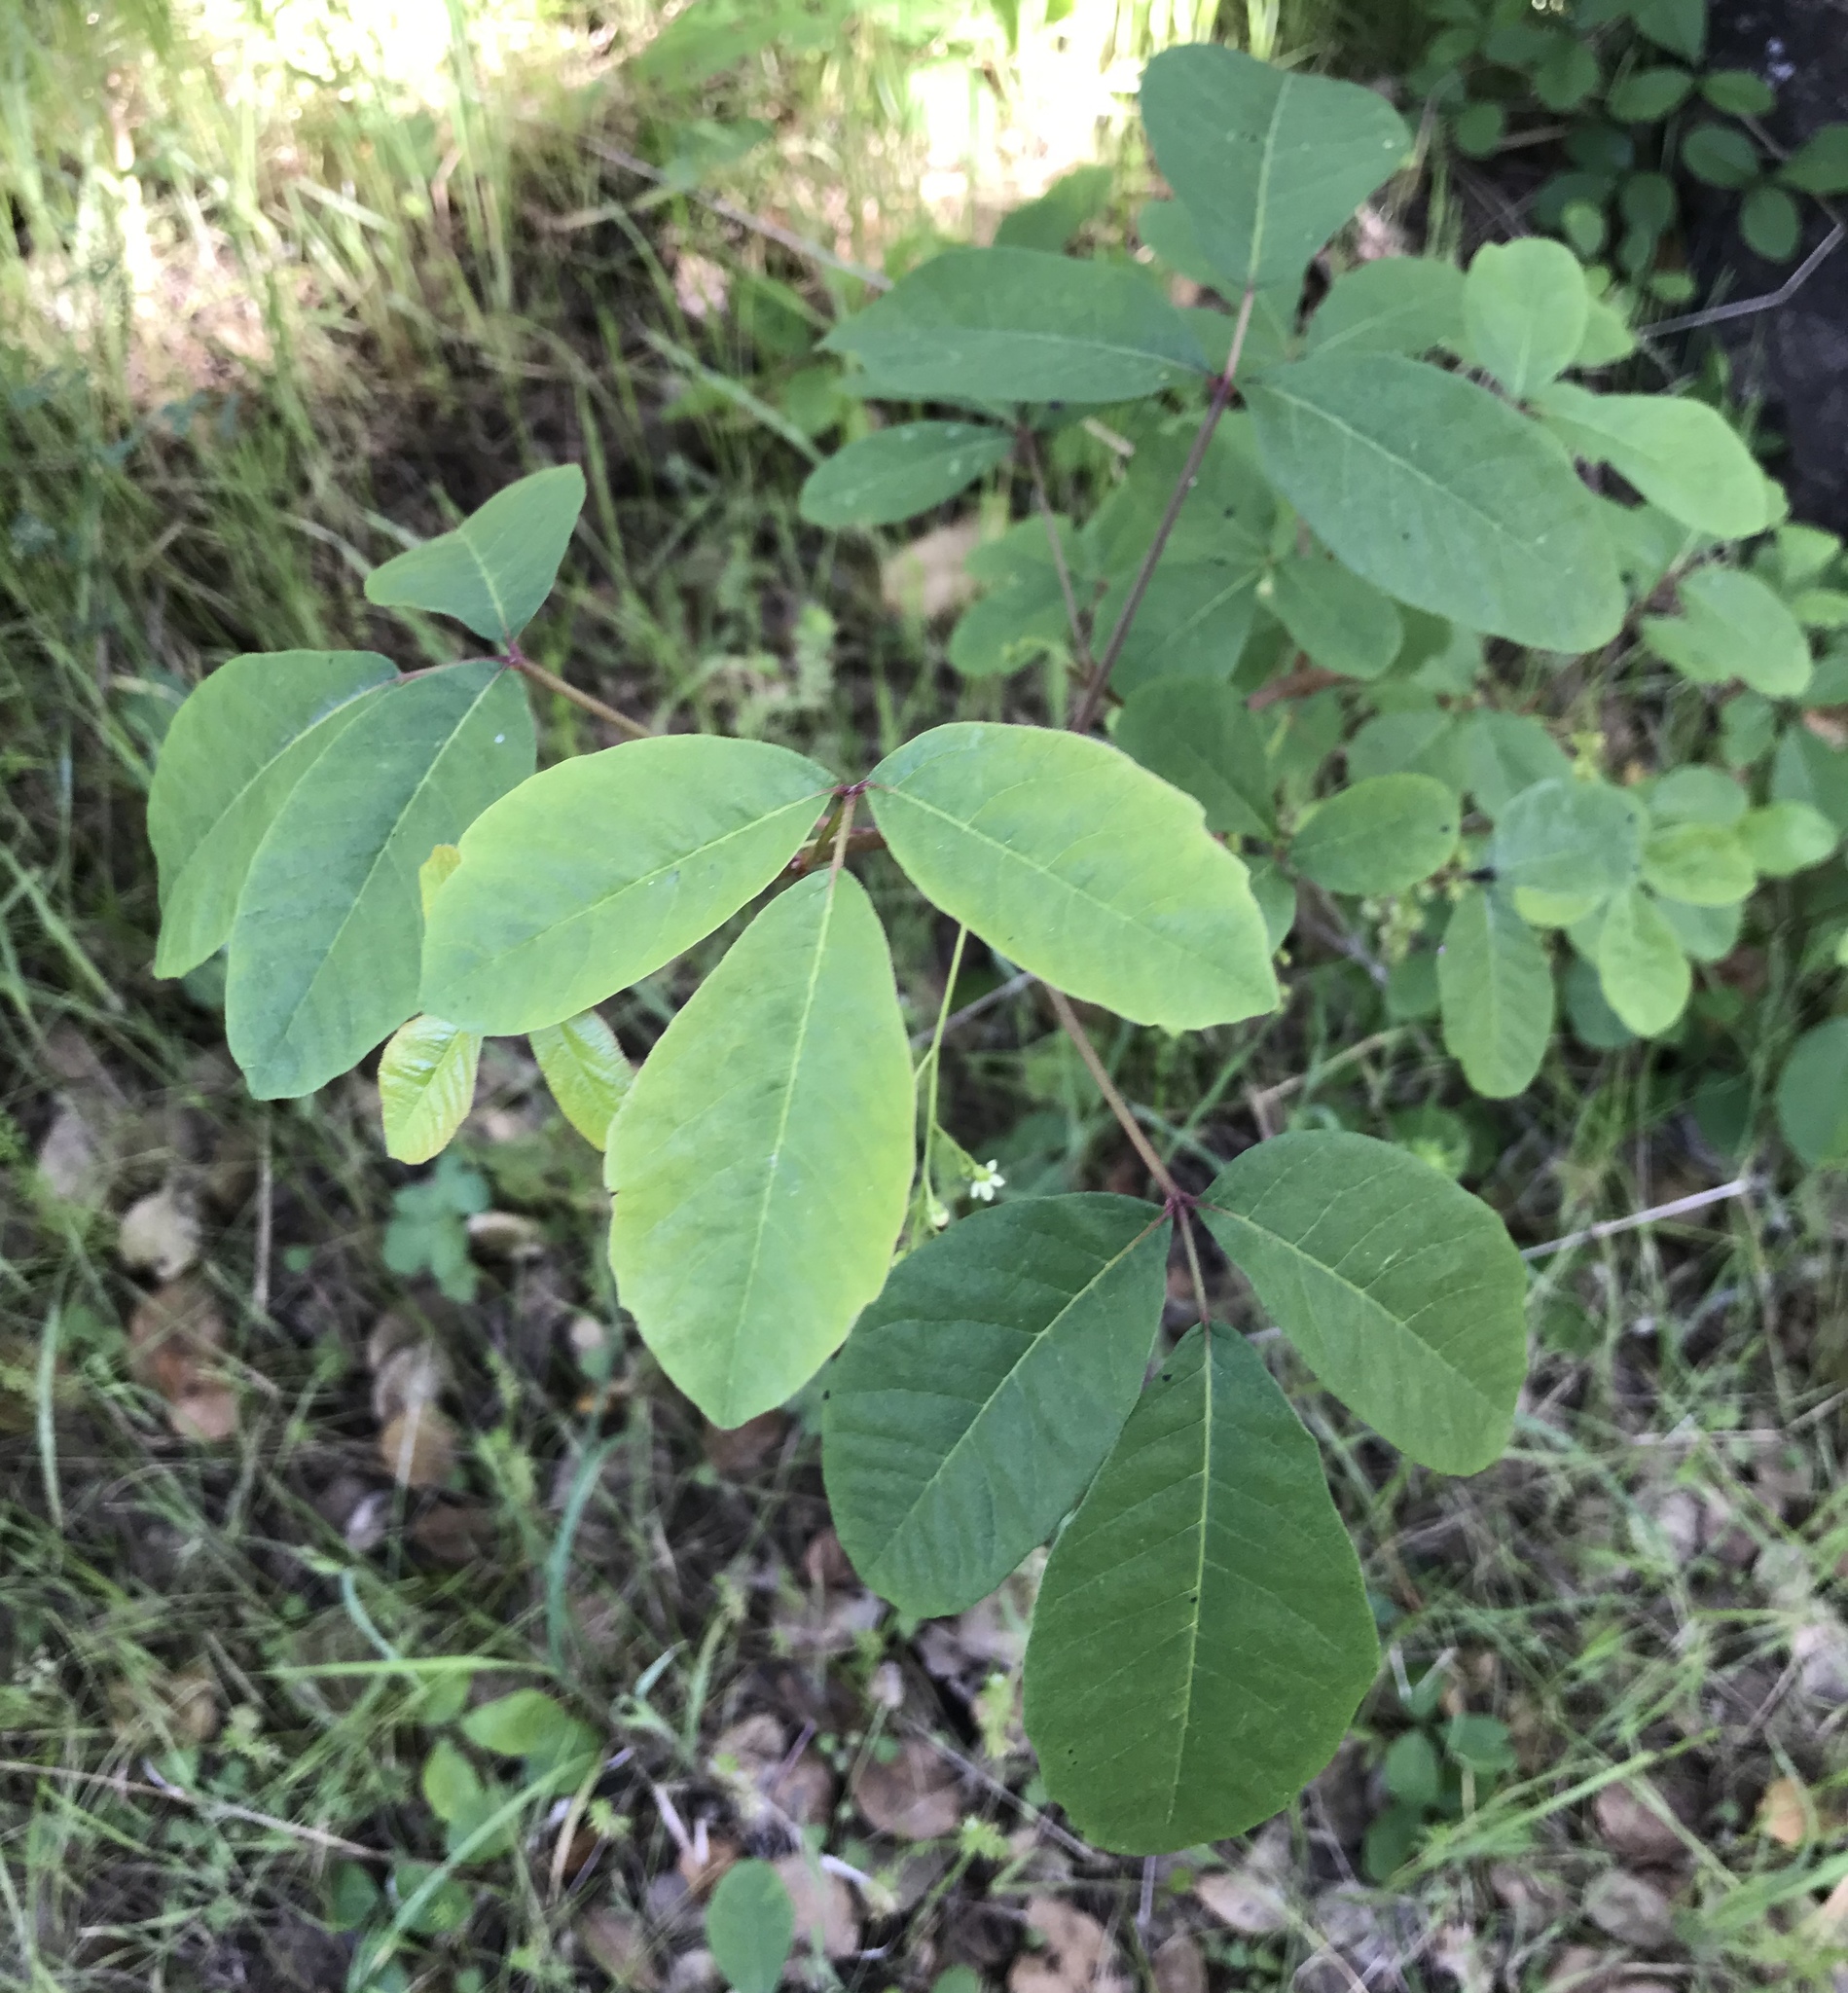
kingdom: Plantae
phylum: Tracheophyta
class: Magnoliopsida
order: Sapindales
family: Anacardiaceae
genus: Toxicodendron
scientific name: Toxicodendron diversilobum
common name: Pacific poison-oak
